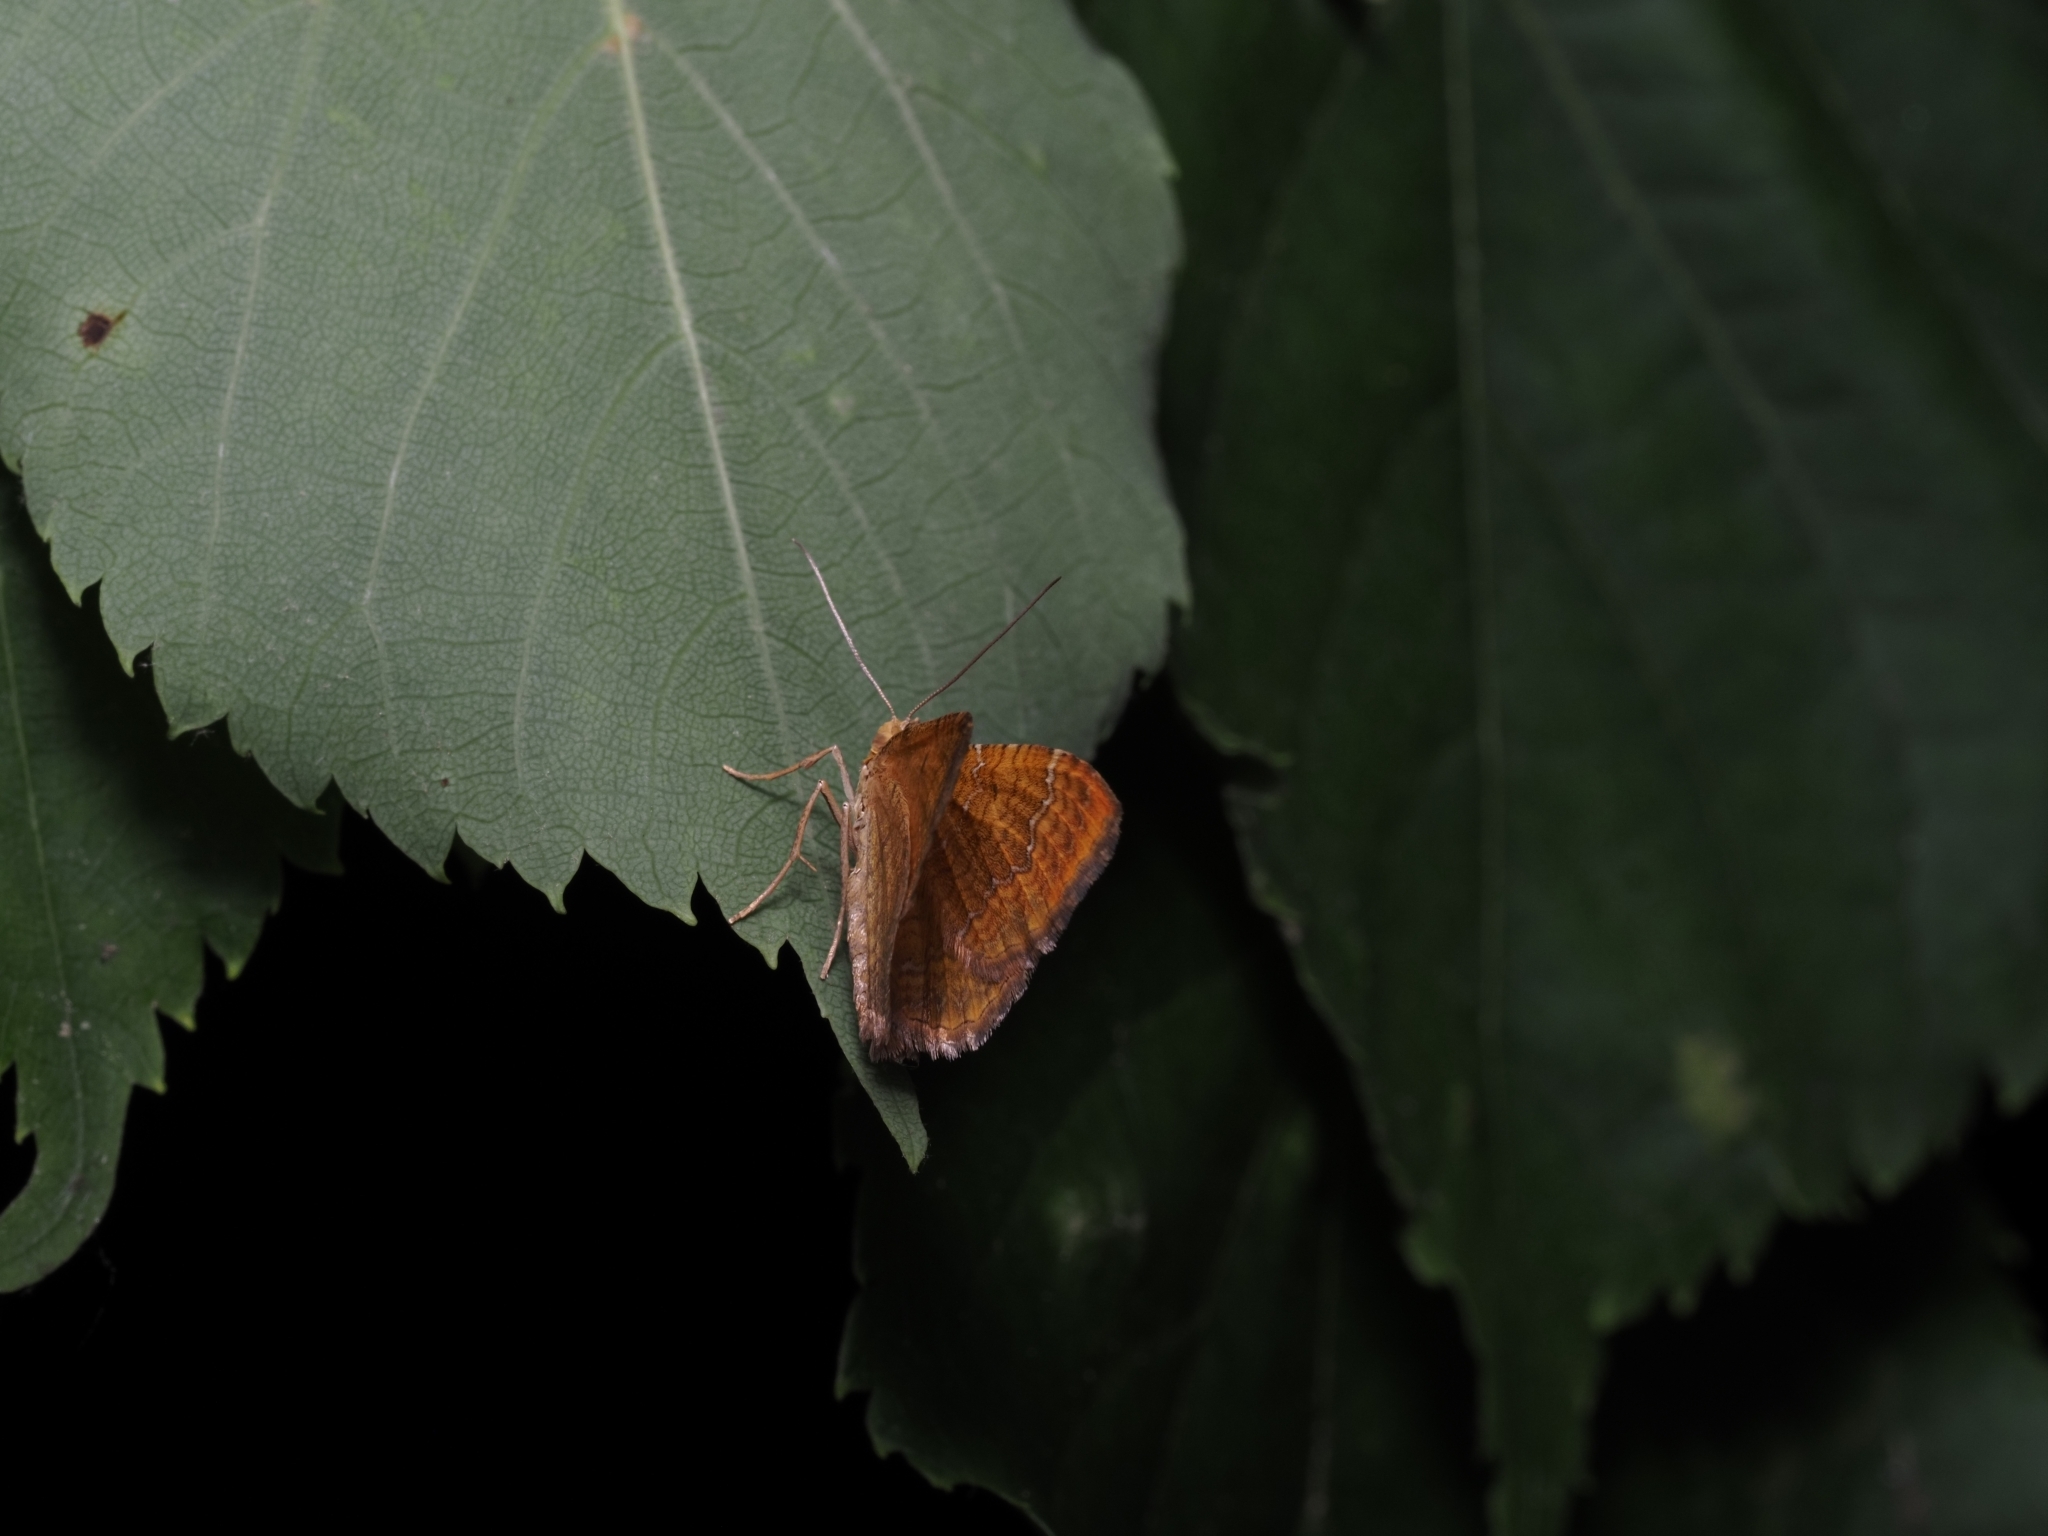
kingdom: Animalia
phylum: Arthropoda
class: Insecta
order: Lepidoptera
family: Geometridae
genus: Camptogramma
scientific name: Camptogramma bilineata
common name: Yellow shell
